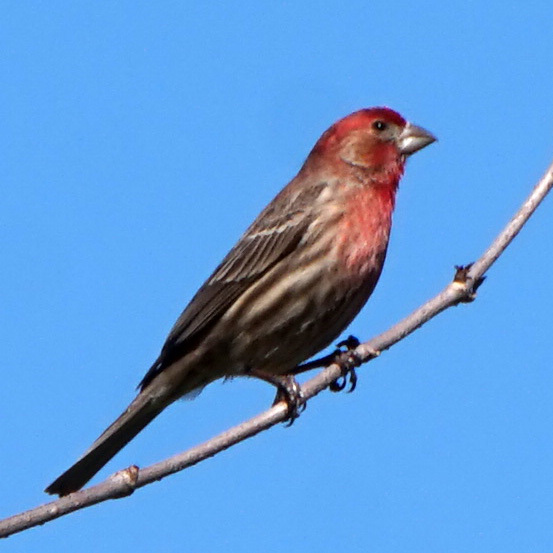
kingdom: Animalia
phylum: Chordata
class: Aves
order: Passeriformes
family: Fringillidae
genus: Haemorhous
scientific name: Haemorhous mexicanus
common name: House finch
